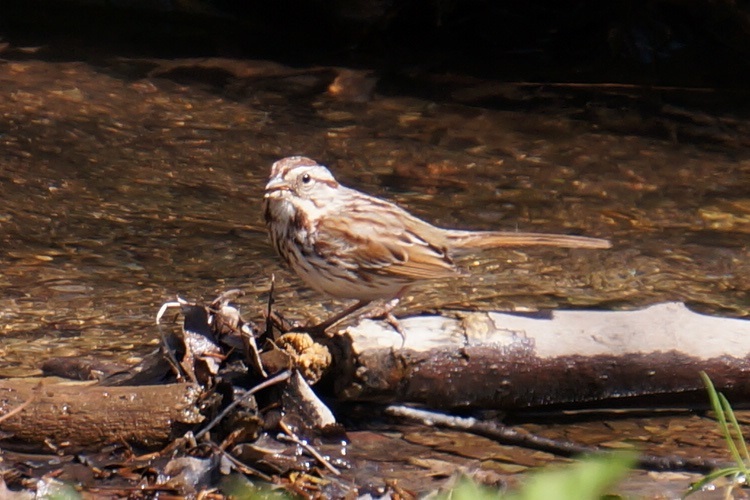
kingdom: Animalia
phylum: Chordata
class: Aves
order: Passeriformes
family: Passerellidae
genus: Melospiza
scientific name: Melospiza melodia
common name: Song sparrow
